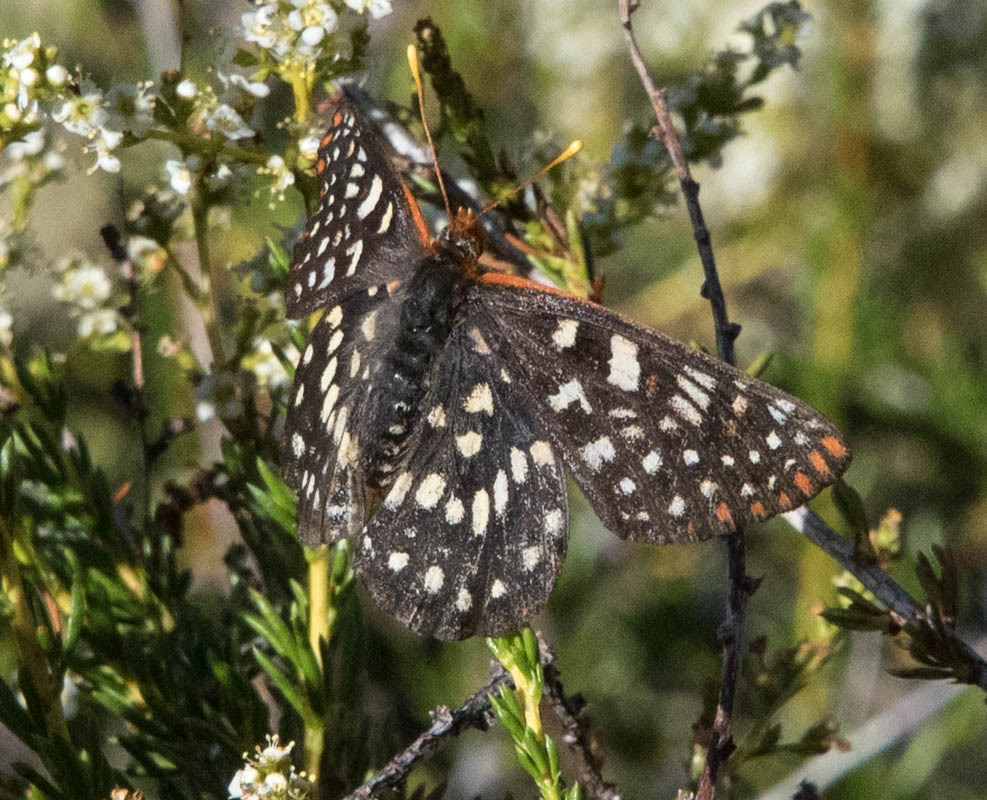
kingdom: Animalia
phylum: Arthropoda
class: Insecta
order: Lepidoptera
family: Nymphalidae
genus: Occidryas
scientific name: Occidryas chalcedona
